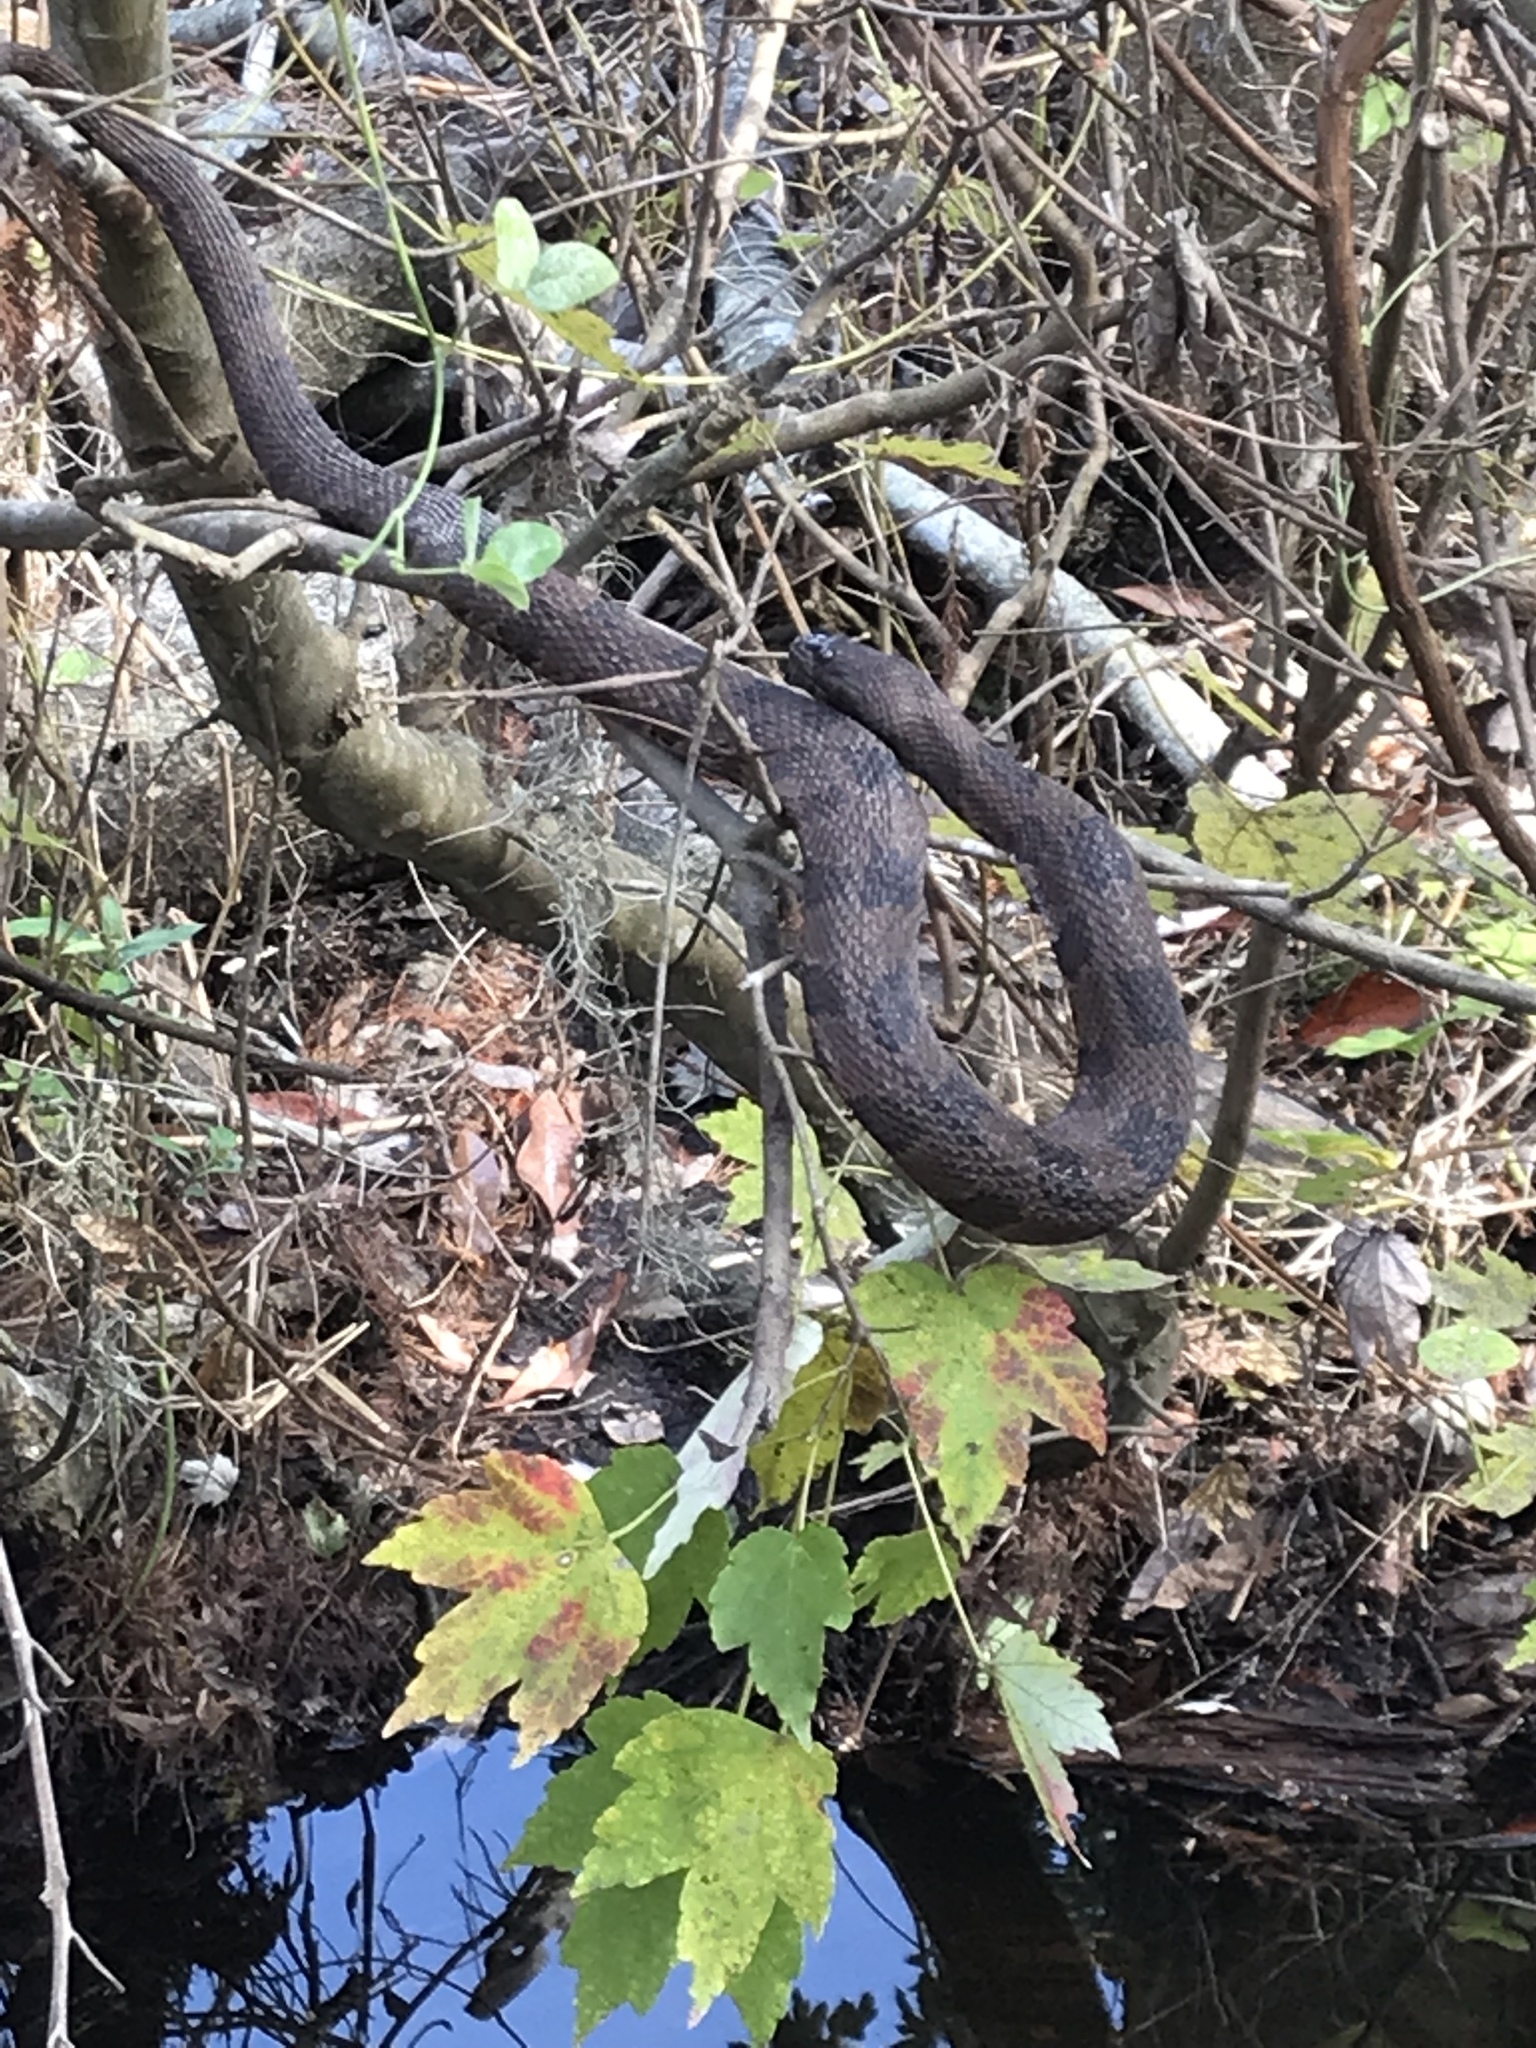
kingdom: Animalia
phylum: Chordata
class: Squamata
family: Colubridae
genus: Nerodia
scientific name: Nerodia taxispilota
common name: Brown water snake
